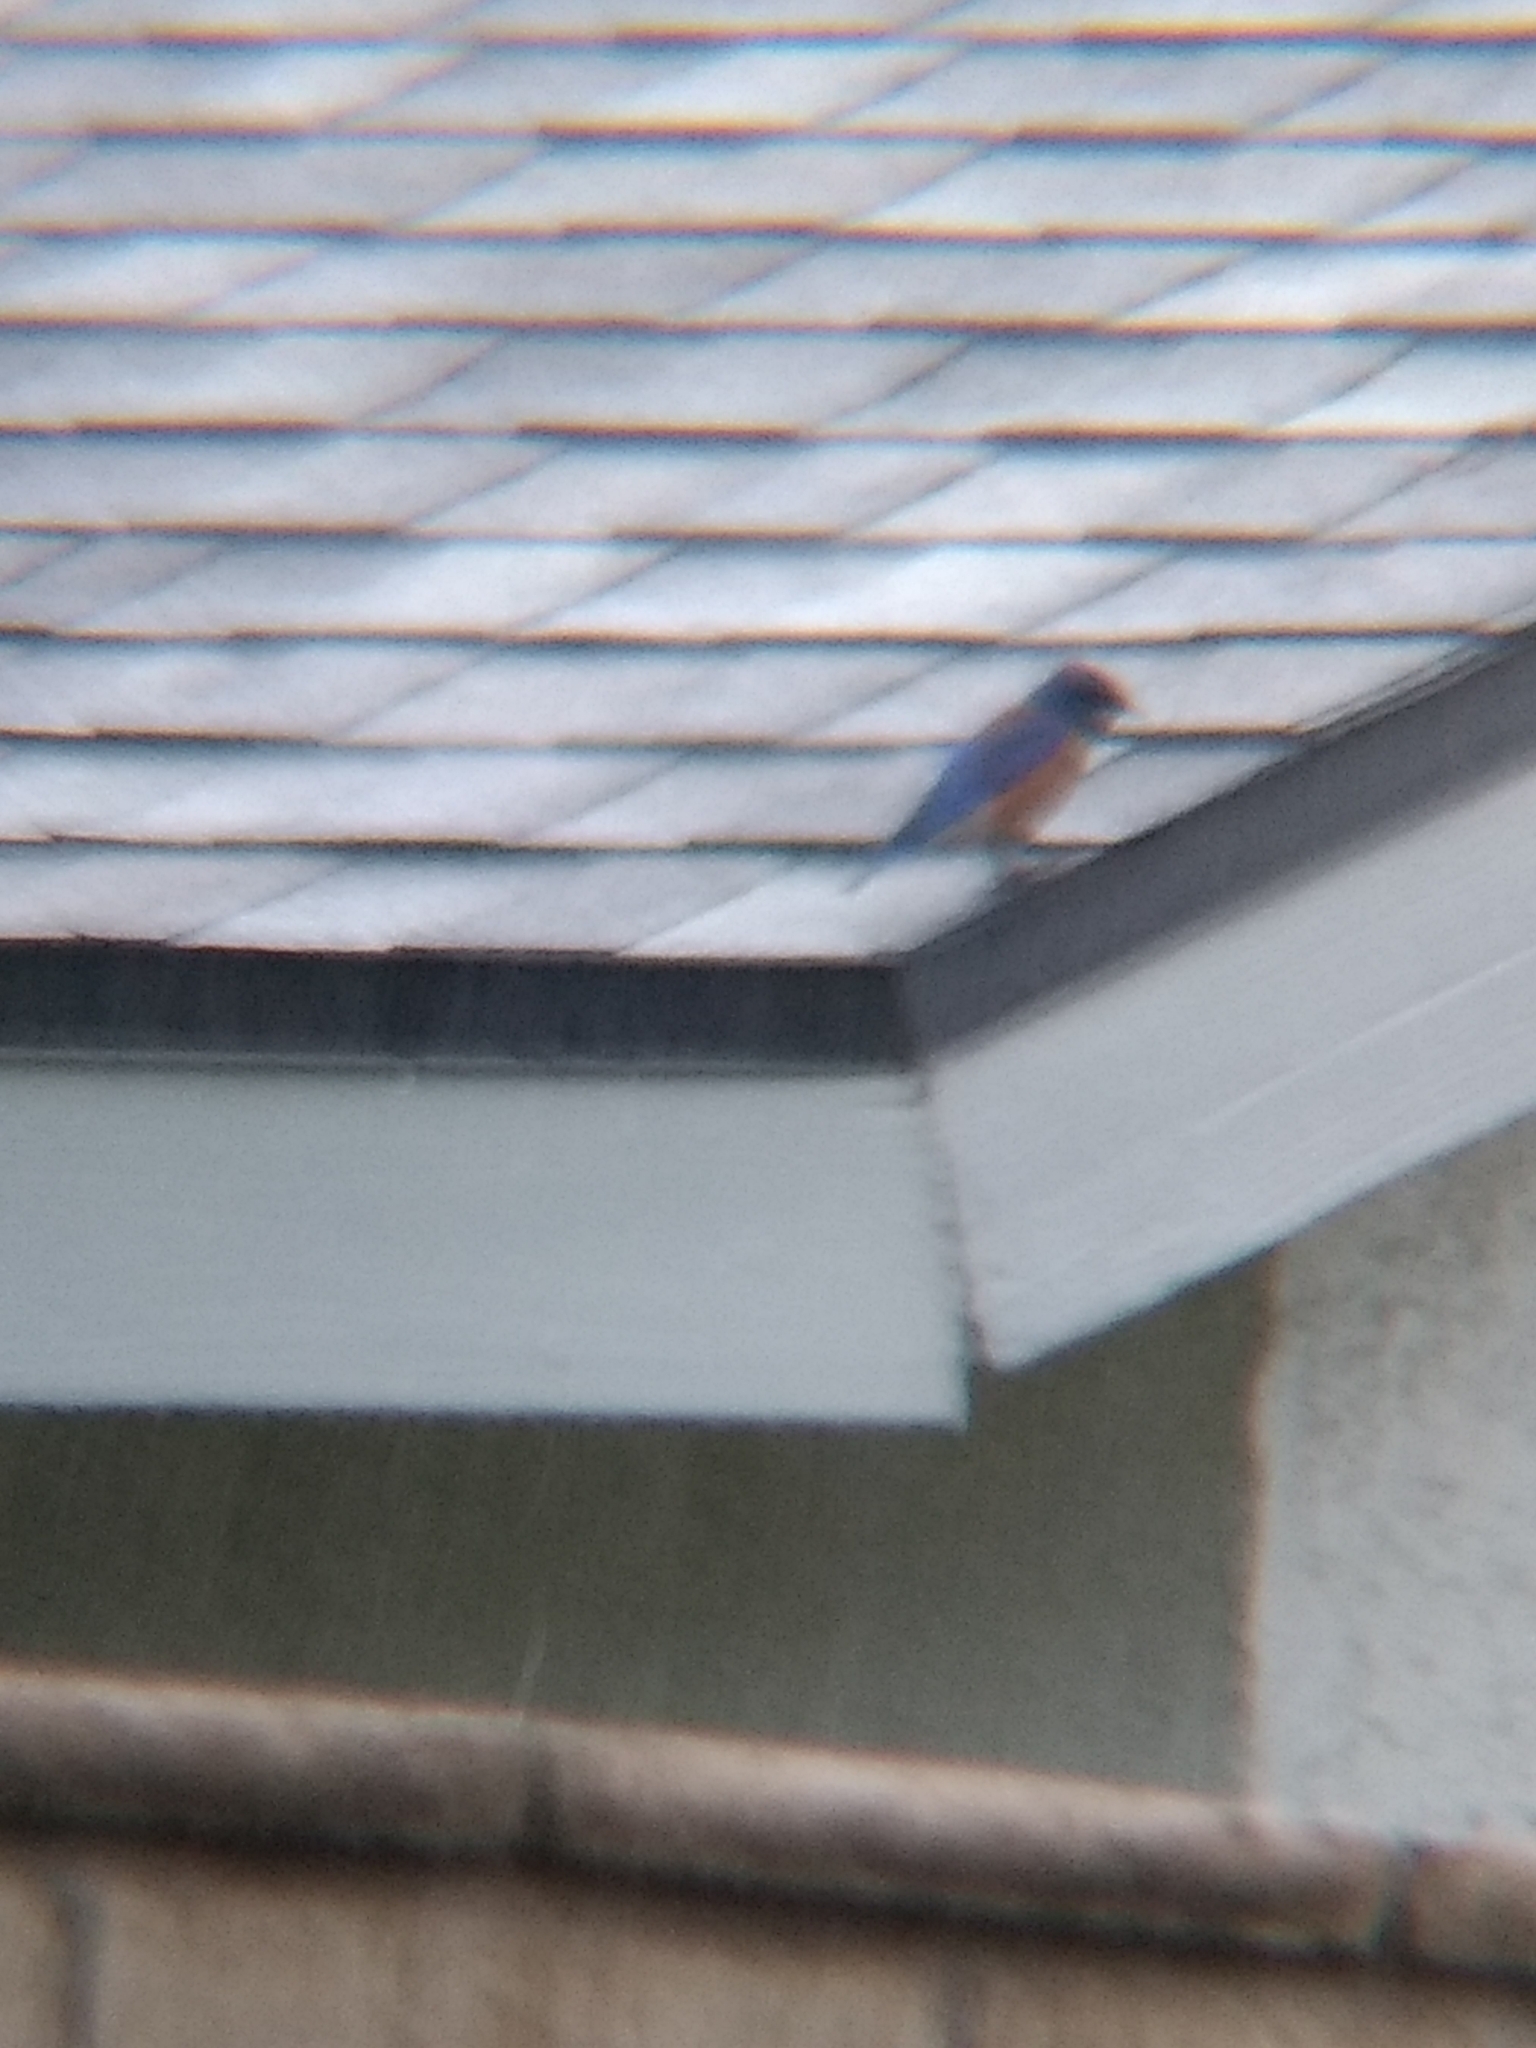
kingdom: Animalia
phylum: Chordata
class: Aves
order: Passeriformes
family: Turdidae
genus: Sialia
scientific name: Sialia mexicana
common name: Western bluebird
